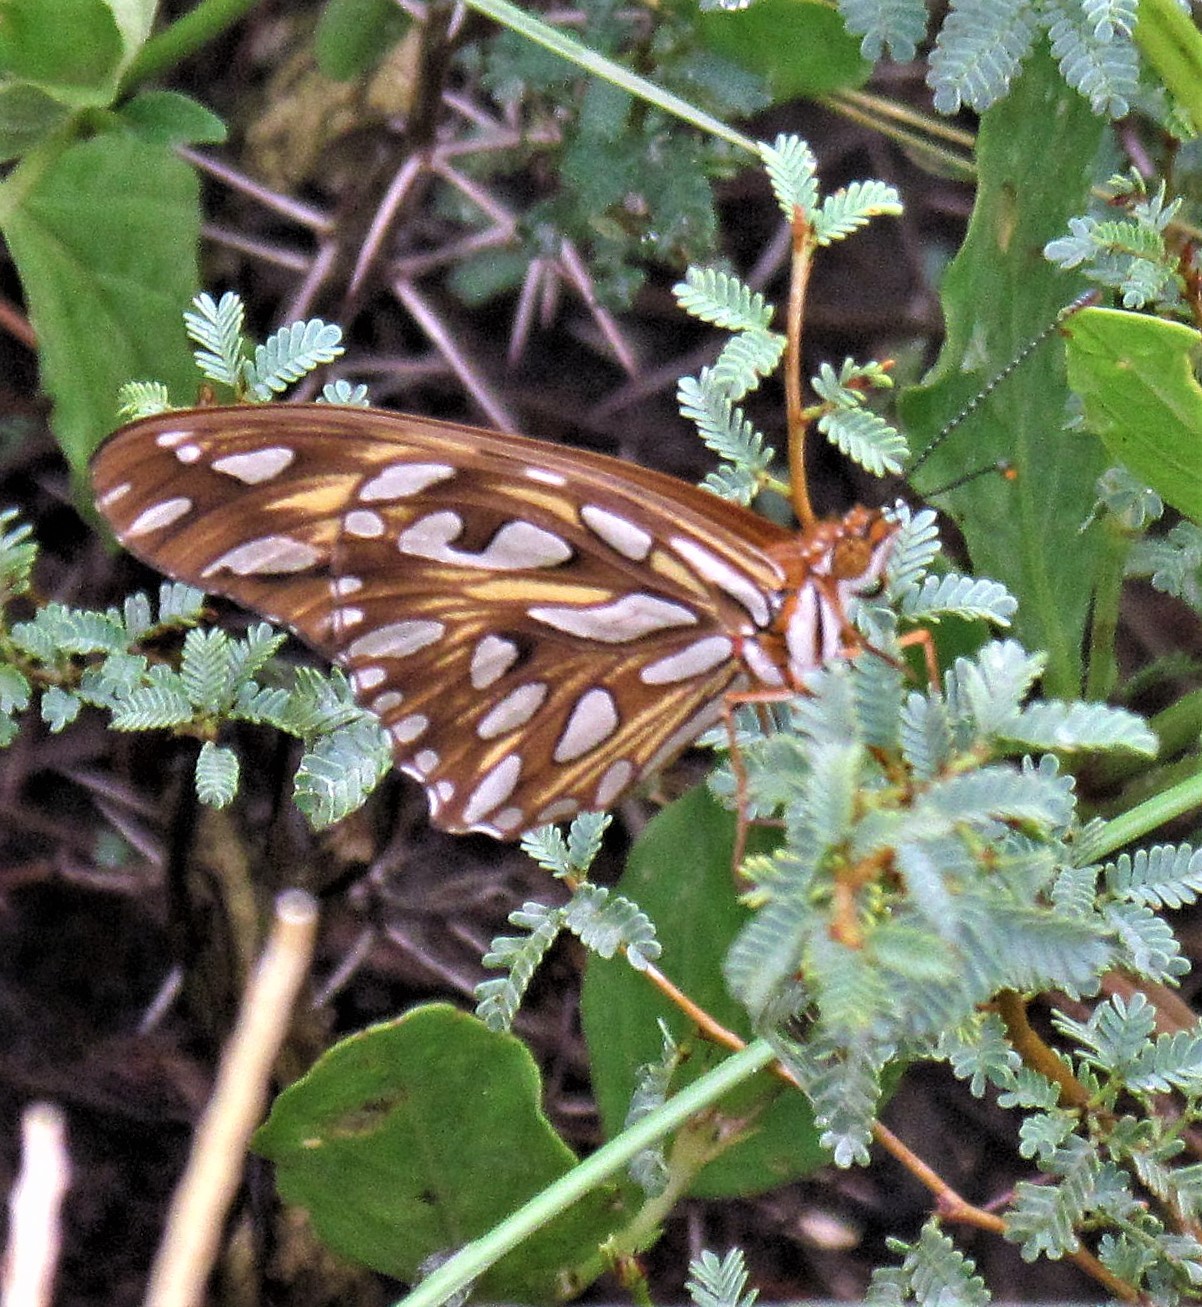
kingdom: Animalia
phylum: Arthropoda
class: Insecta
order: Lepidoptera
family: Nymphalidae
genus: Dione
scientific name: Dione vanillae
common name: Gulf fritillary
